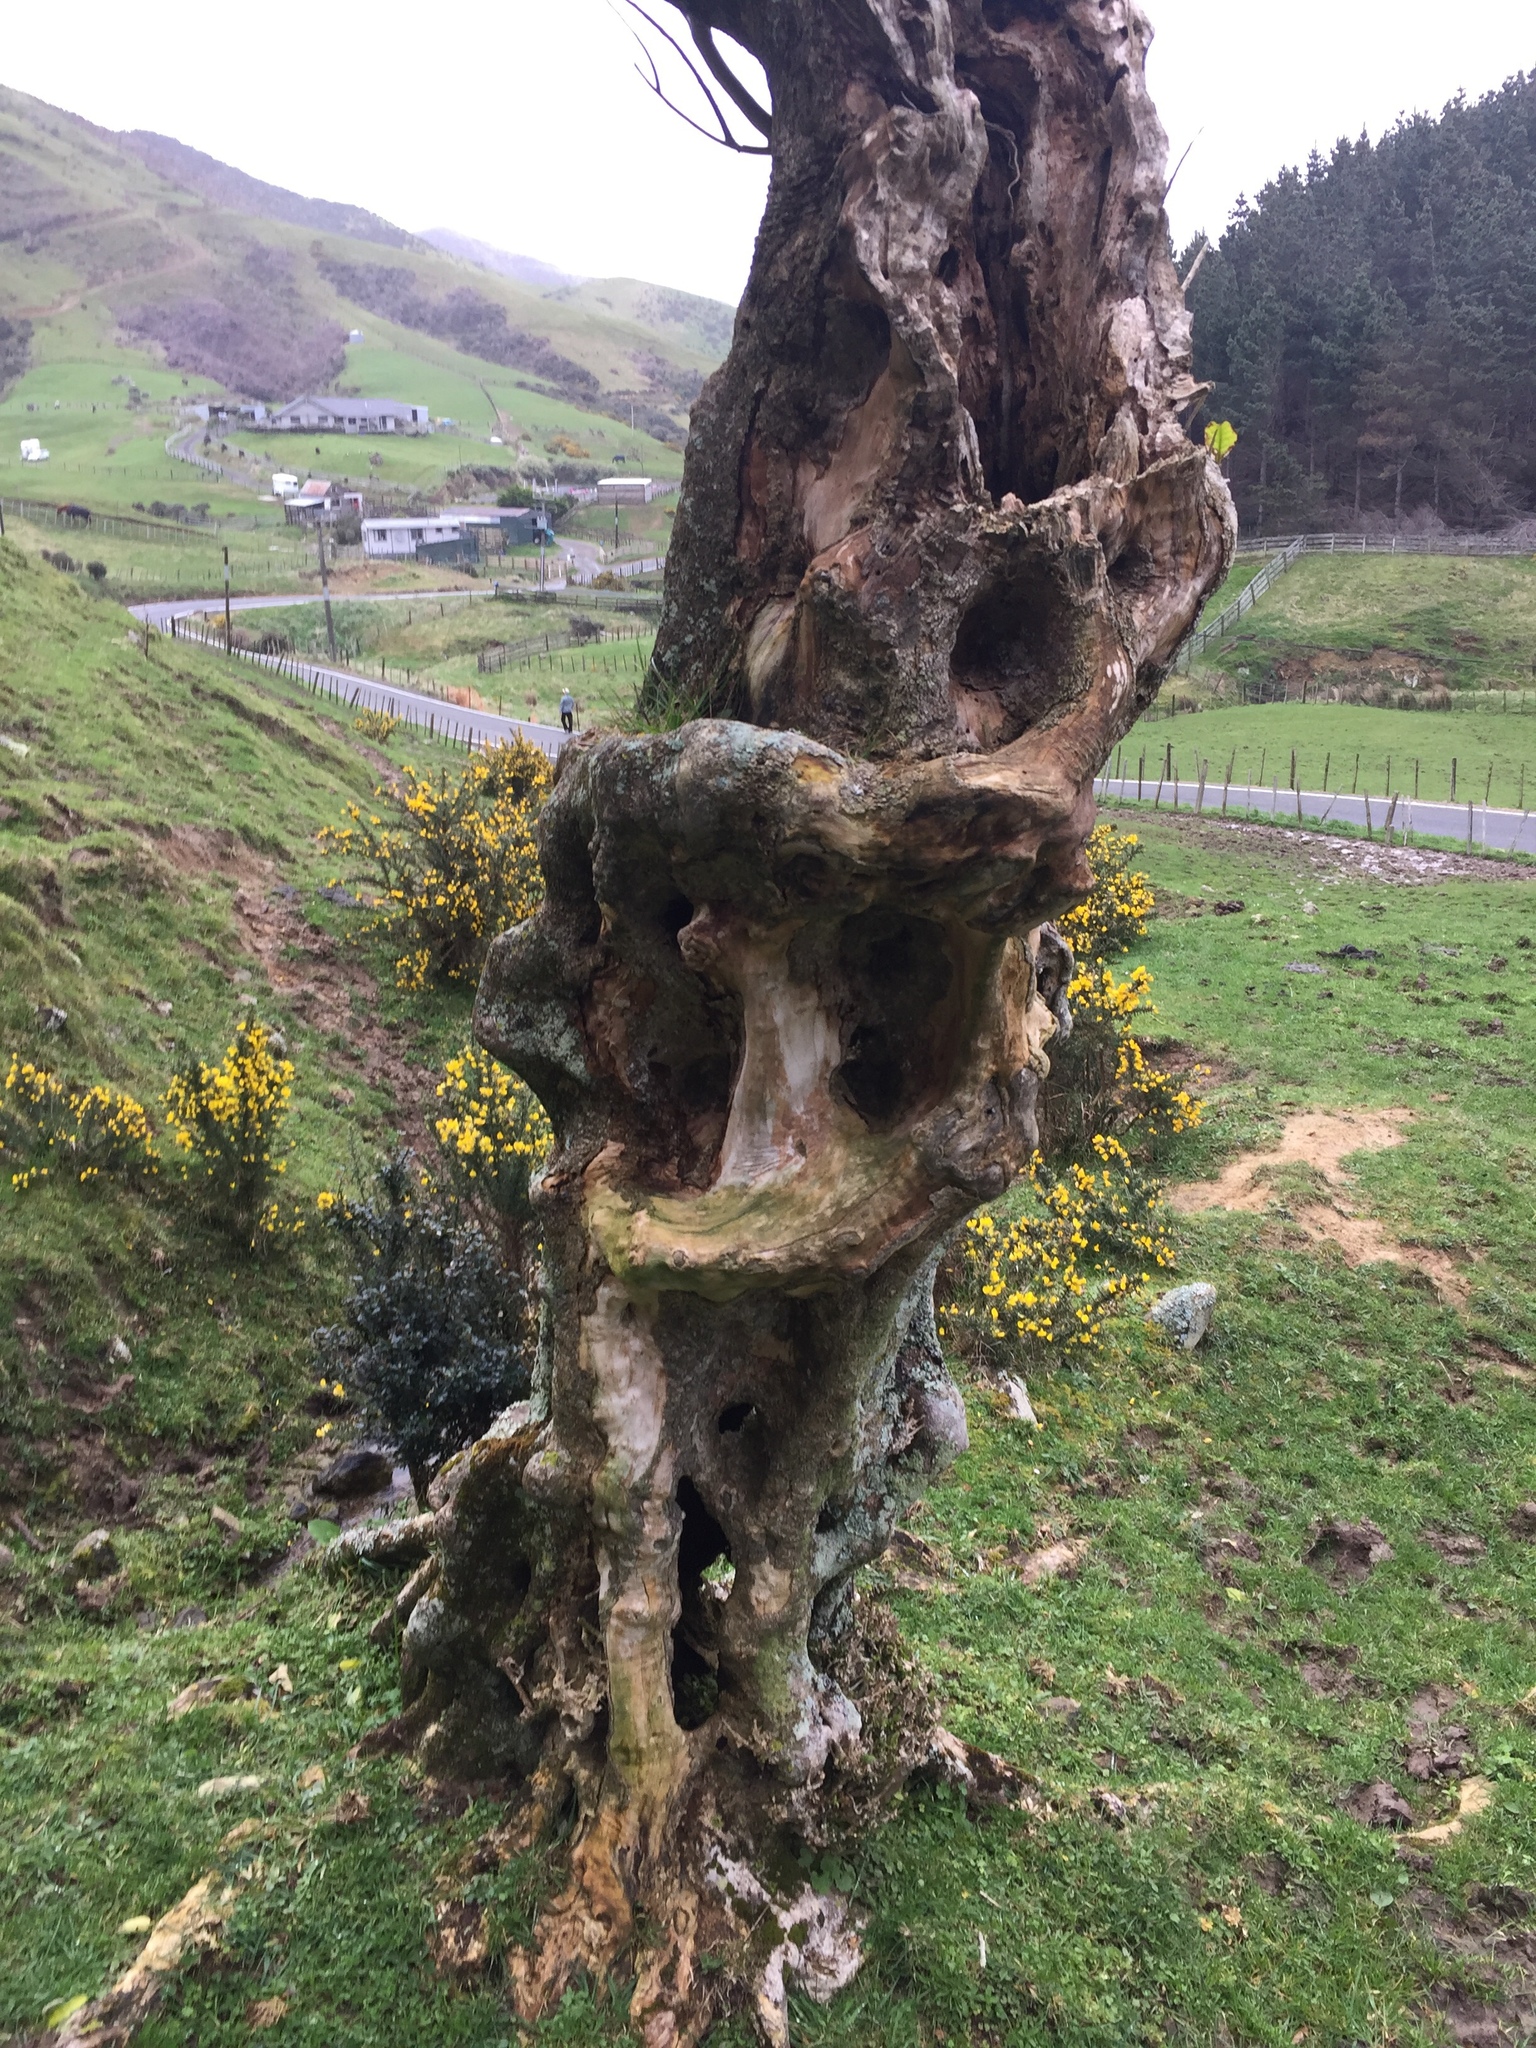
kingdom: Plantae
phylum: Tracheophyta
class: Magnoliopsida
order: Malpighiales
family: Violaceae
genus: Melicytus
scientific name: Melicytus ramiflorus
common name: Mahoe
